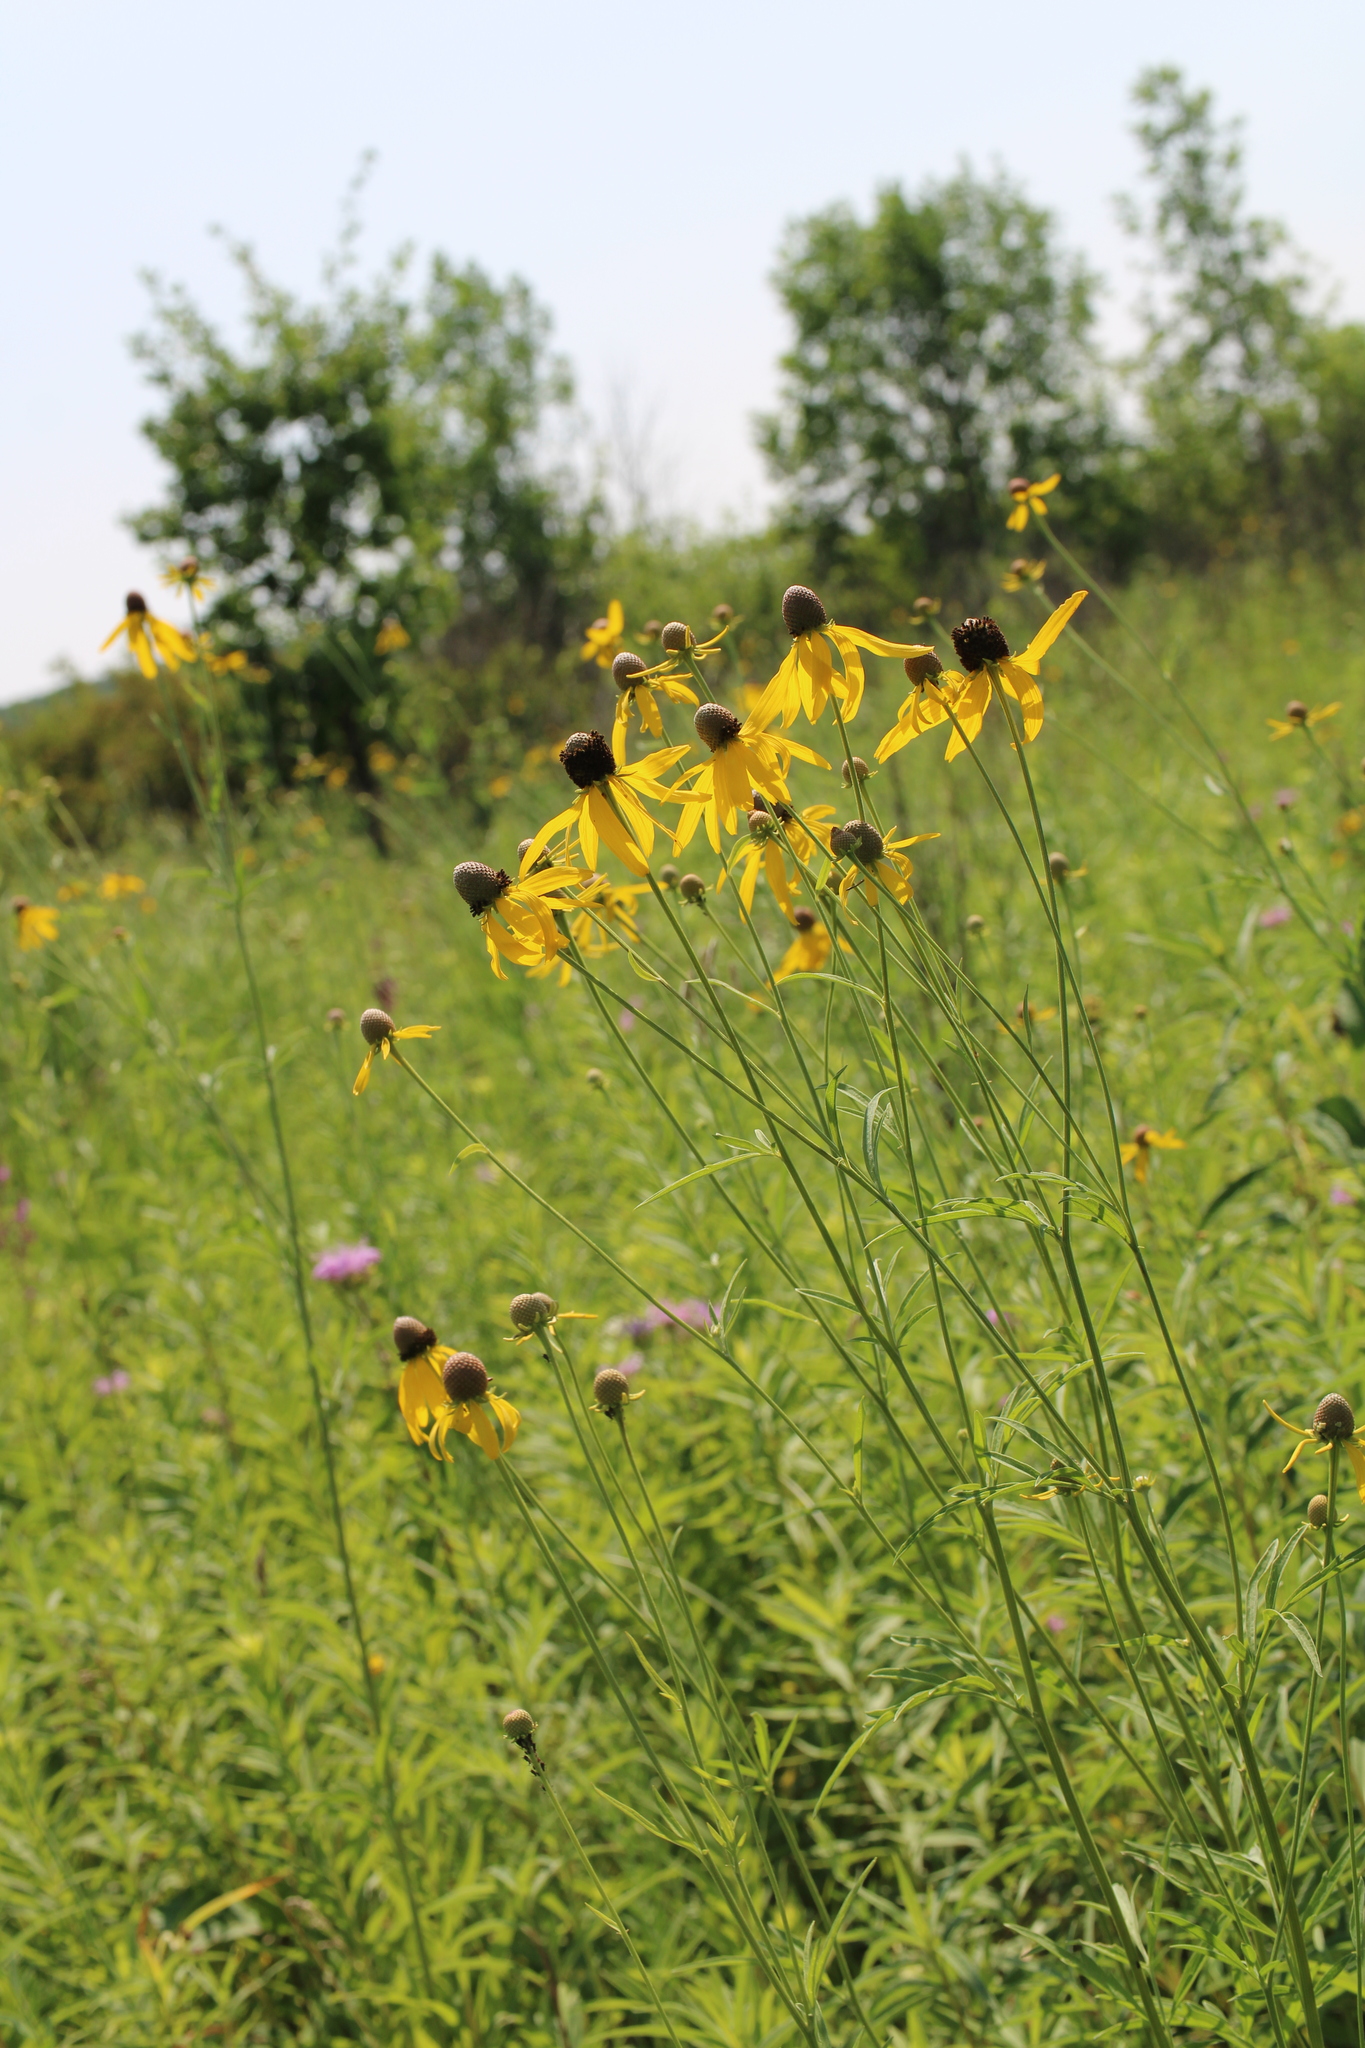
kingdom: Plantae
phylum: Tracheophyta
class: Magnoliopsida
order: Asterales
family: Asteraceae
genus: Ratibida
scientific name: Ratibida pinnata
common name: Drooping prairie-coneflower
